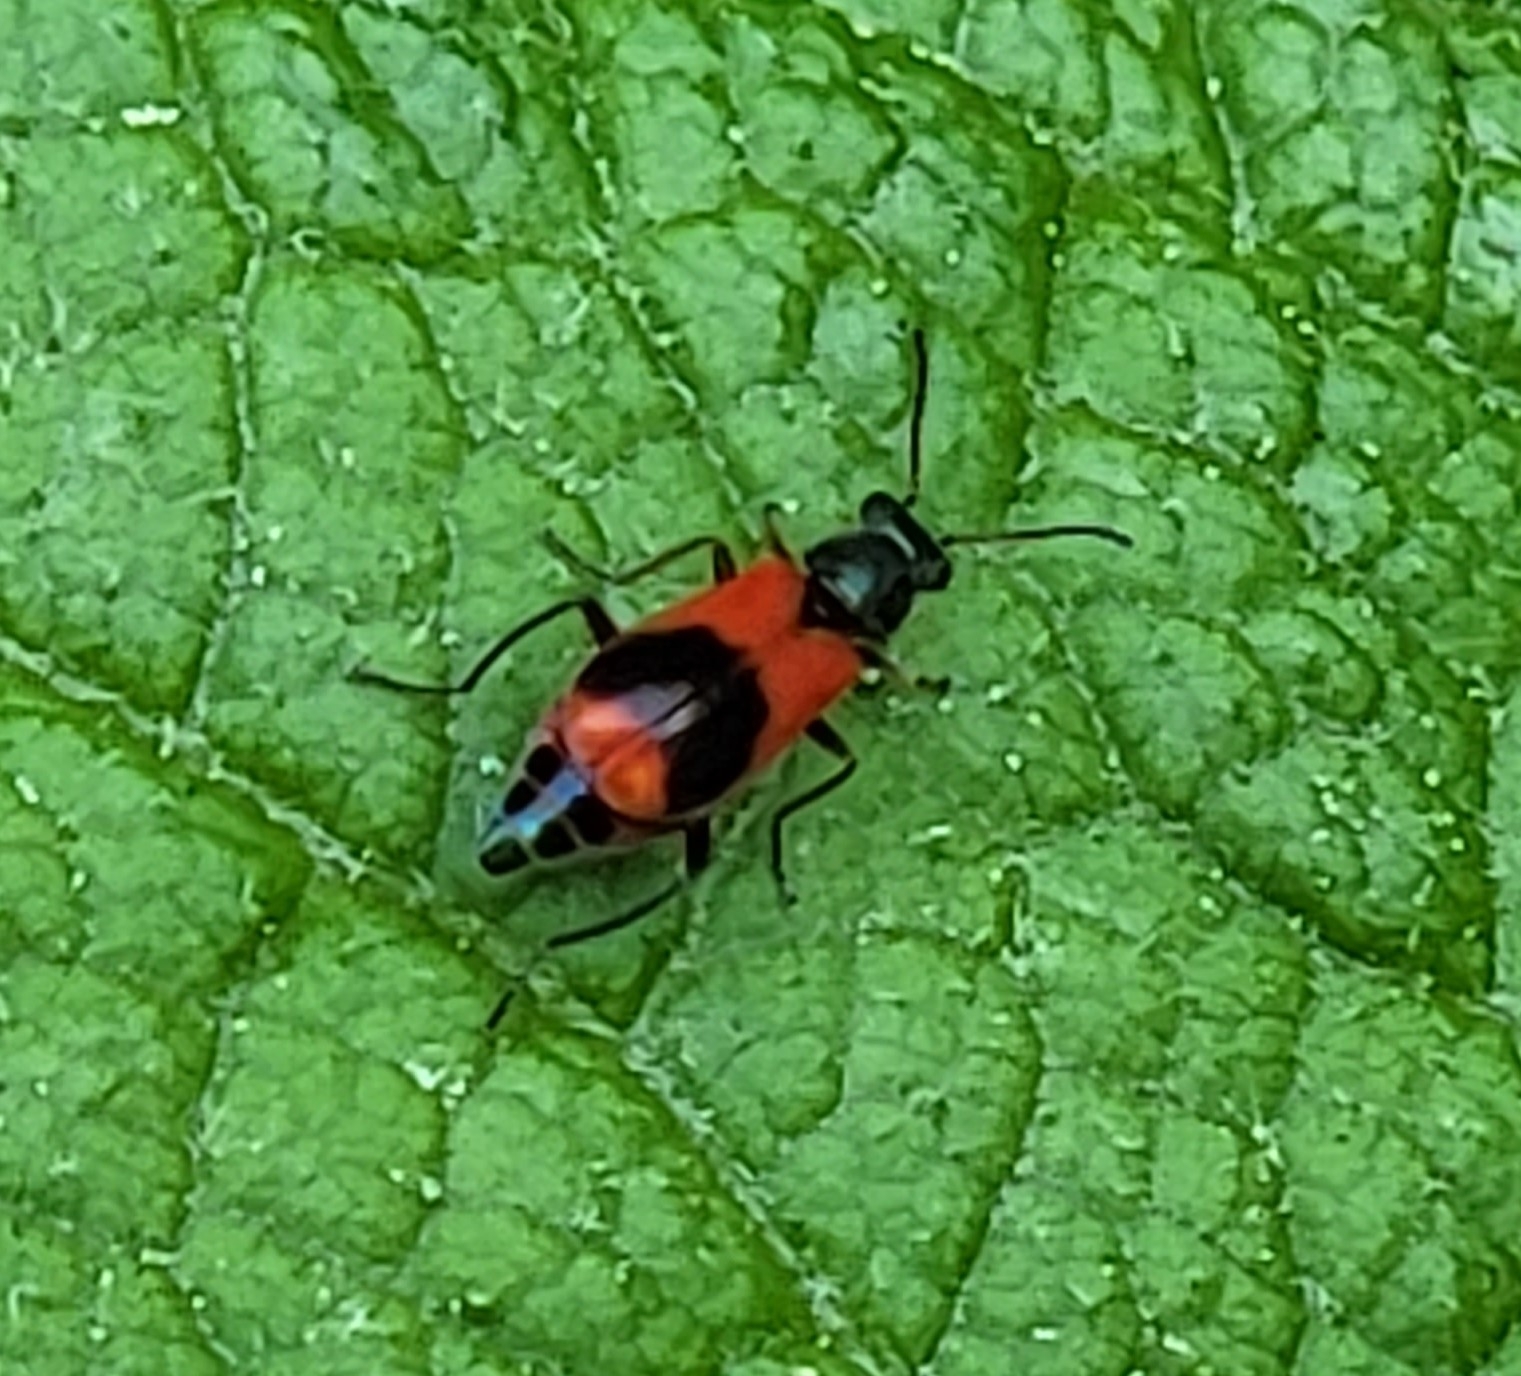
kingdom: Animalia
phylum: Arthropoda
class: Insecta
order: Coleoptera
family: Melyridae
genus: Anthocomus
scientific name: Anthocomus equestris
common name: Black-banded soft-winged flower beetle
